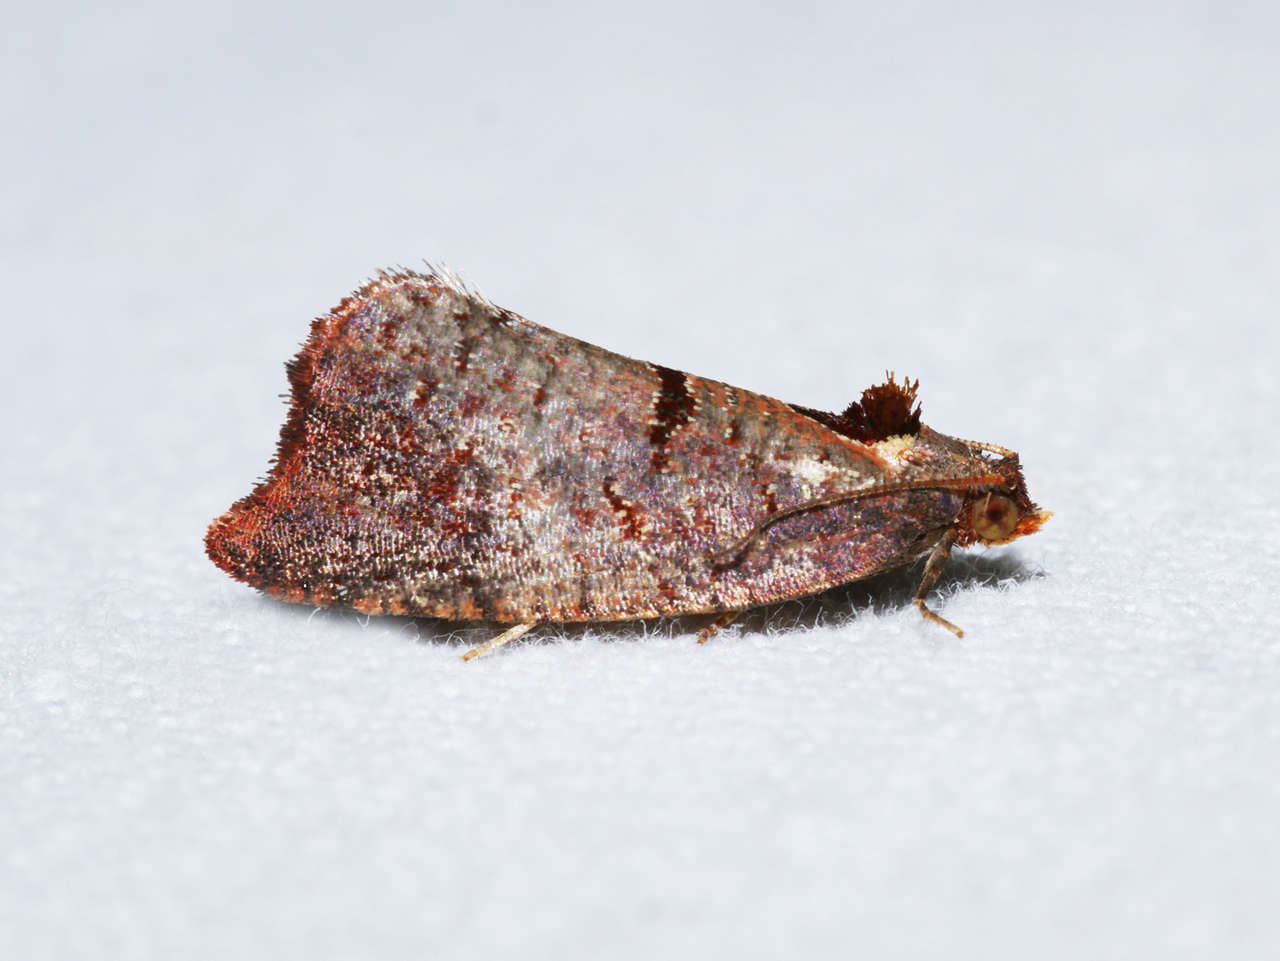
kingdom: Animalia
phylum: Arthropoda
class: Insecta
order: Lepidoptera
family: Tortricidae
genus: Glyphidoptera
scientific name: Glyphidoptera insignana
